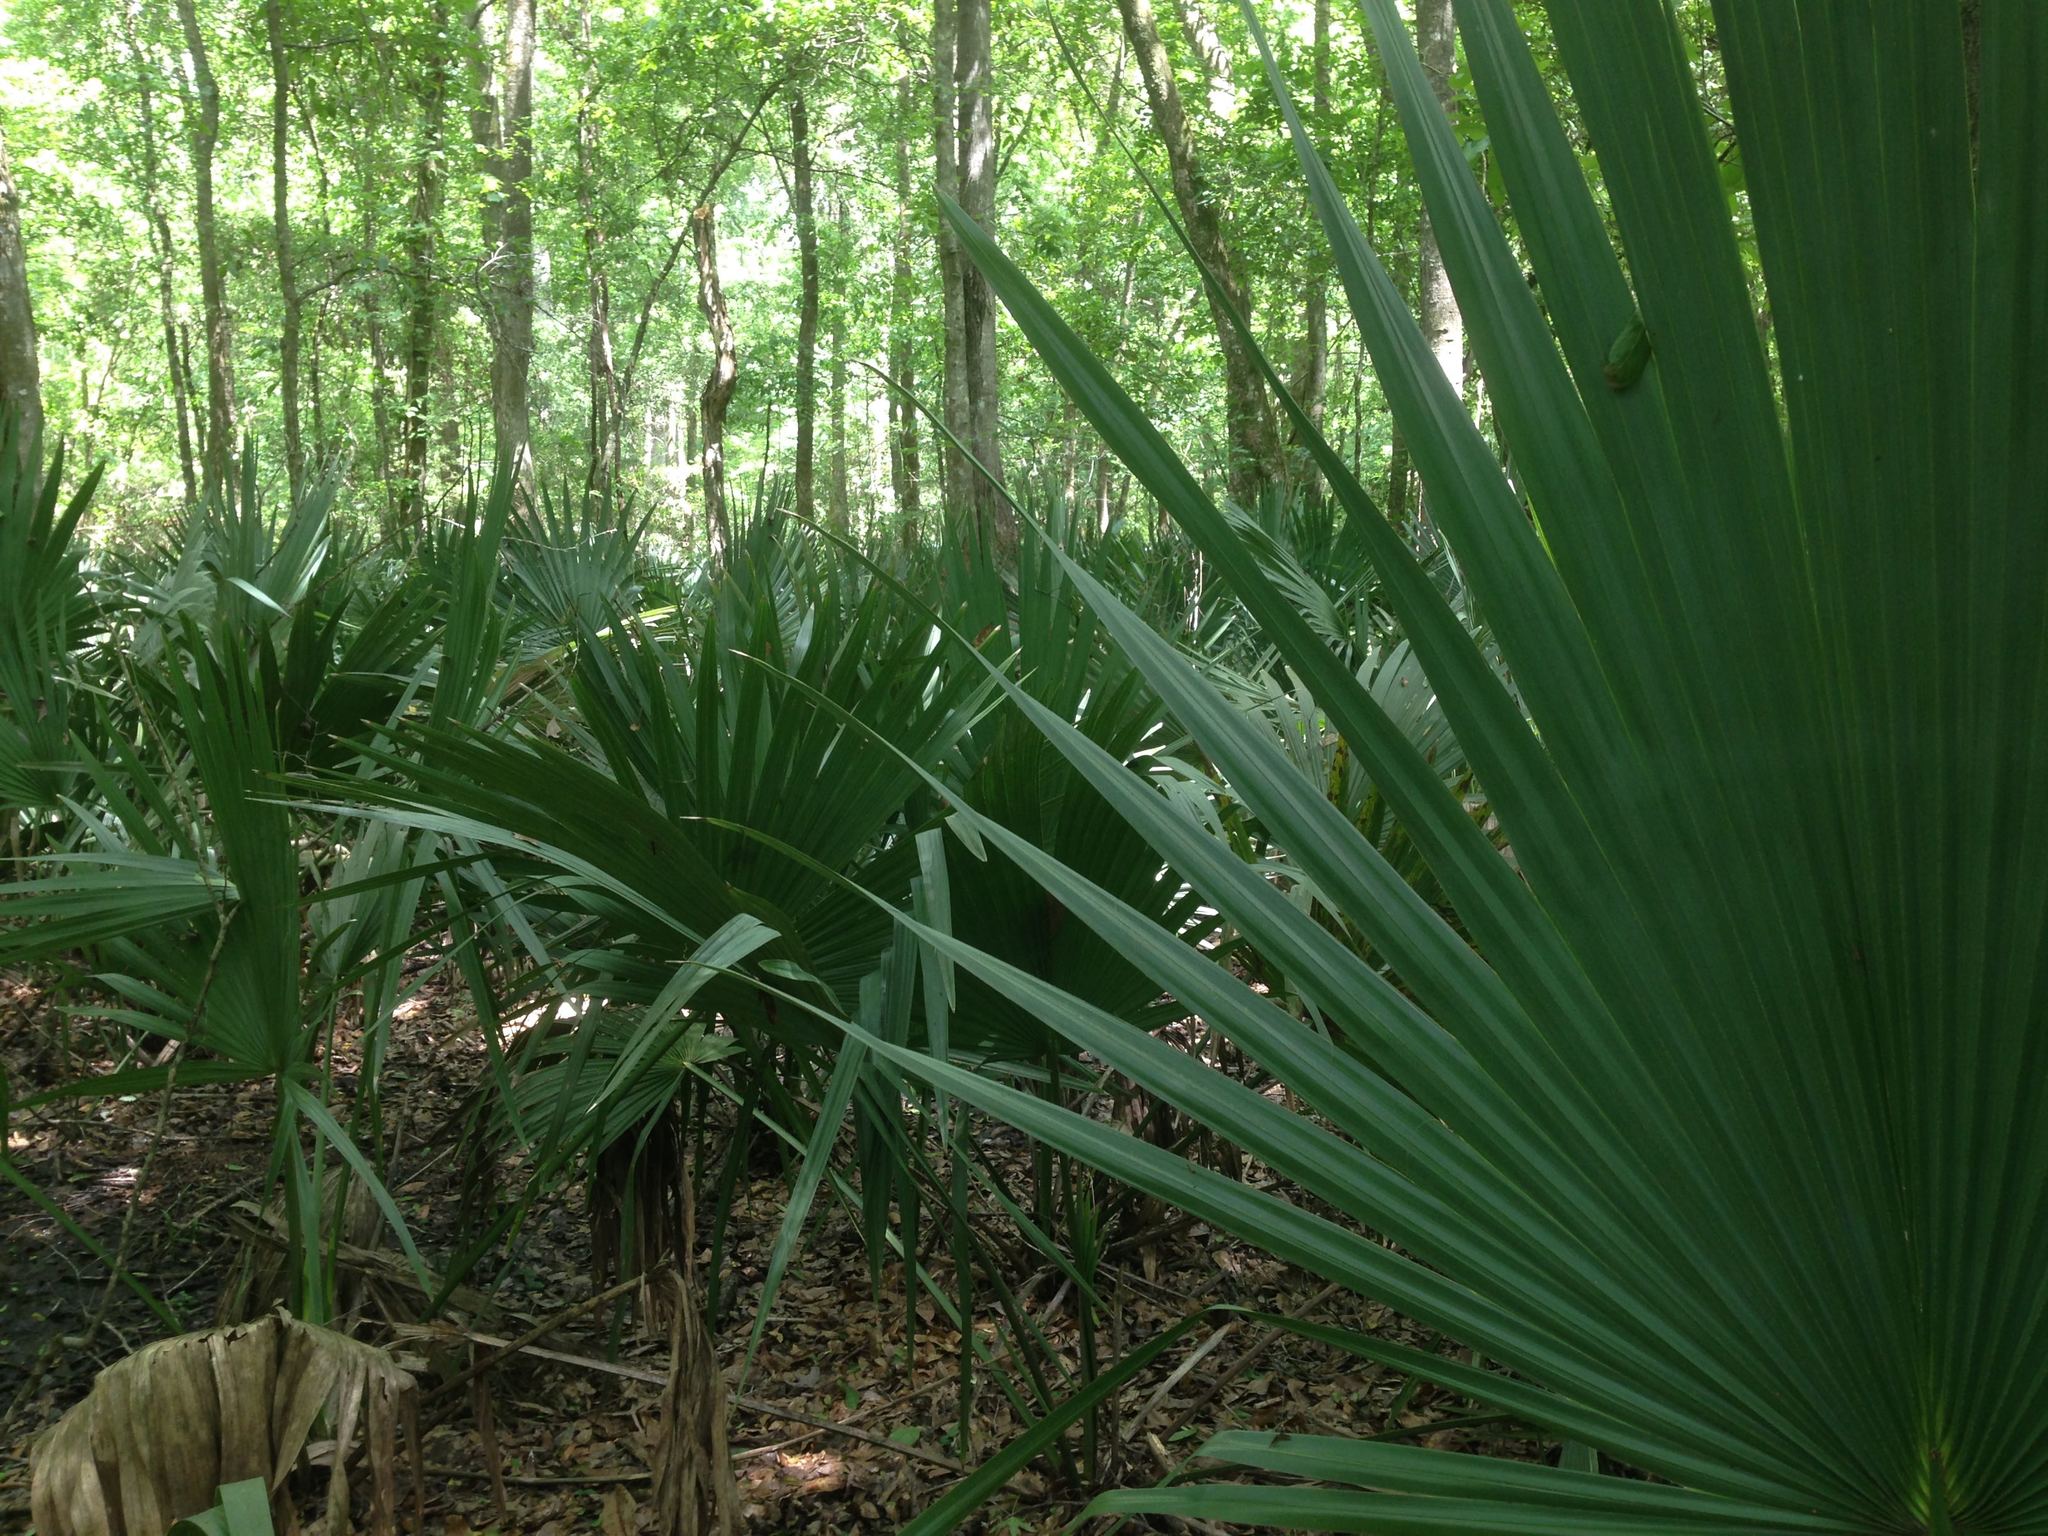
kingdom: Plantae
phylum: Tracheophyta
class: Liliopsida
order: Arecales
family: Arecaceae
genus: Sabal
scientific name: Sabal minor
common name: Dwarf palmetto
